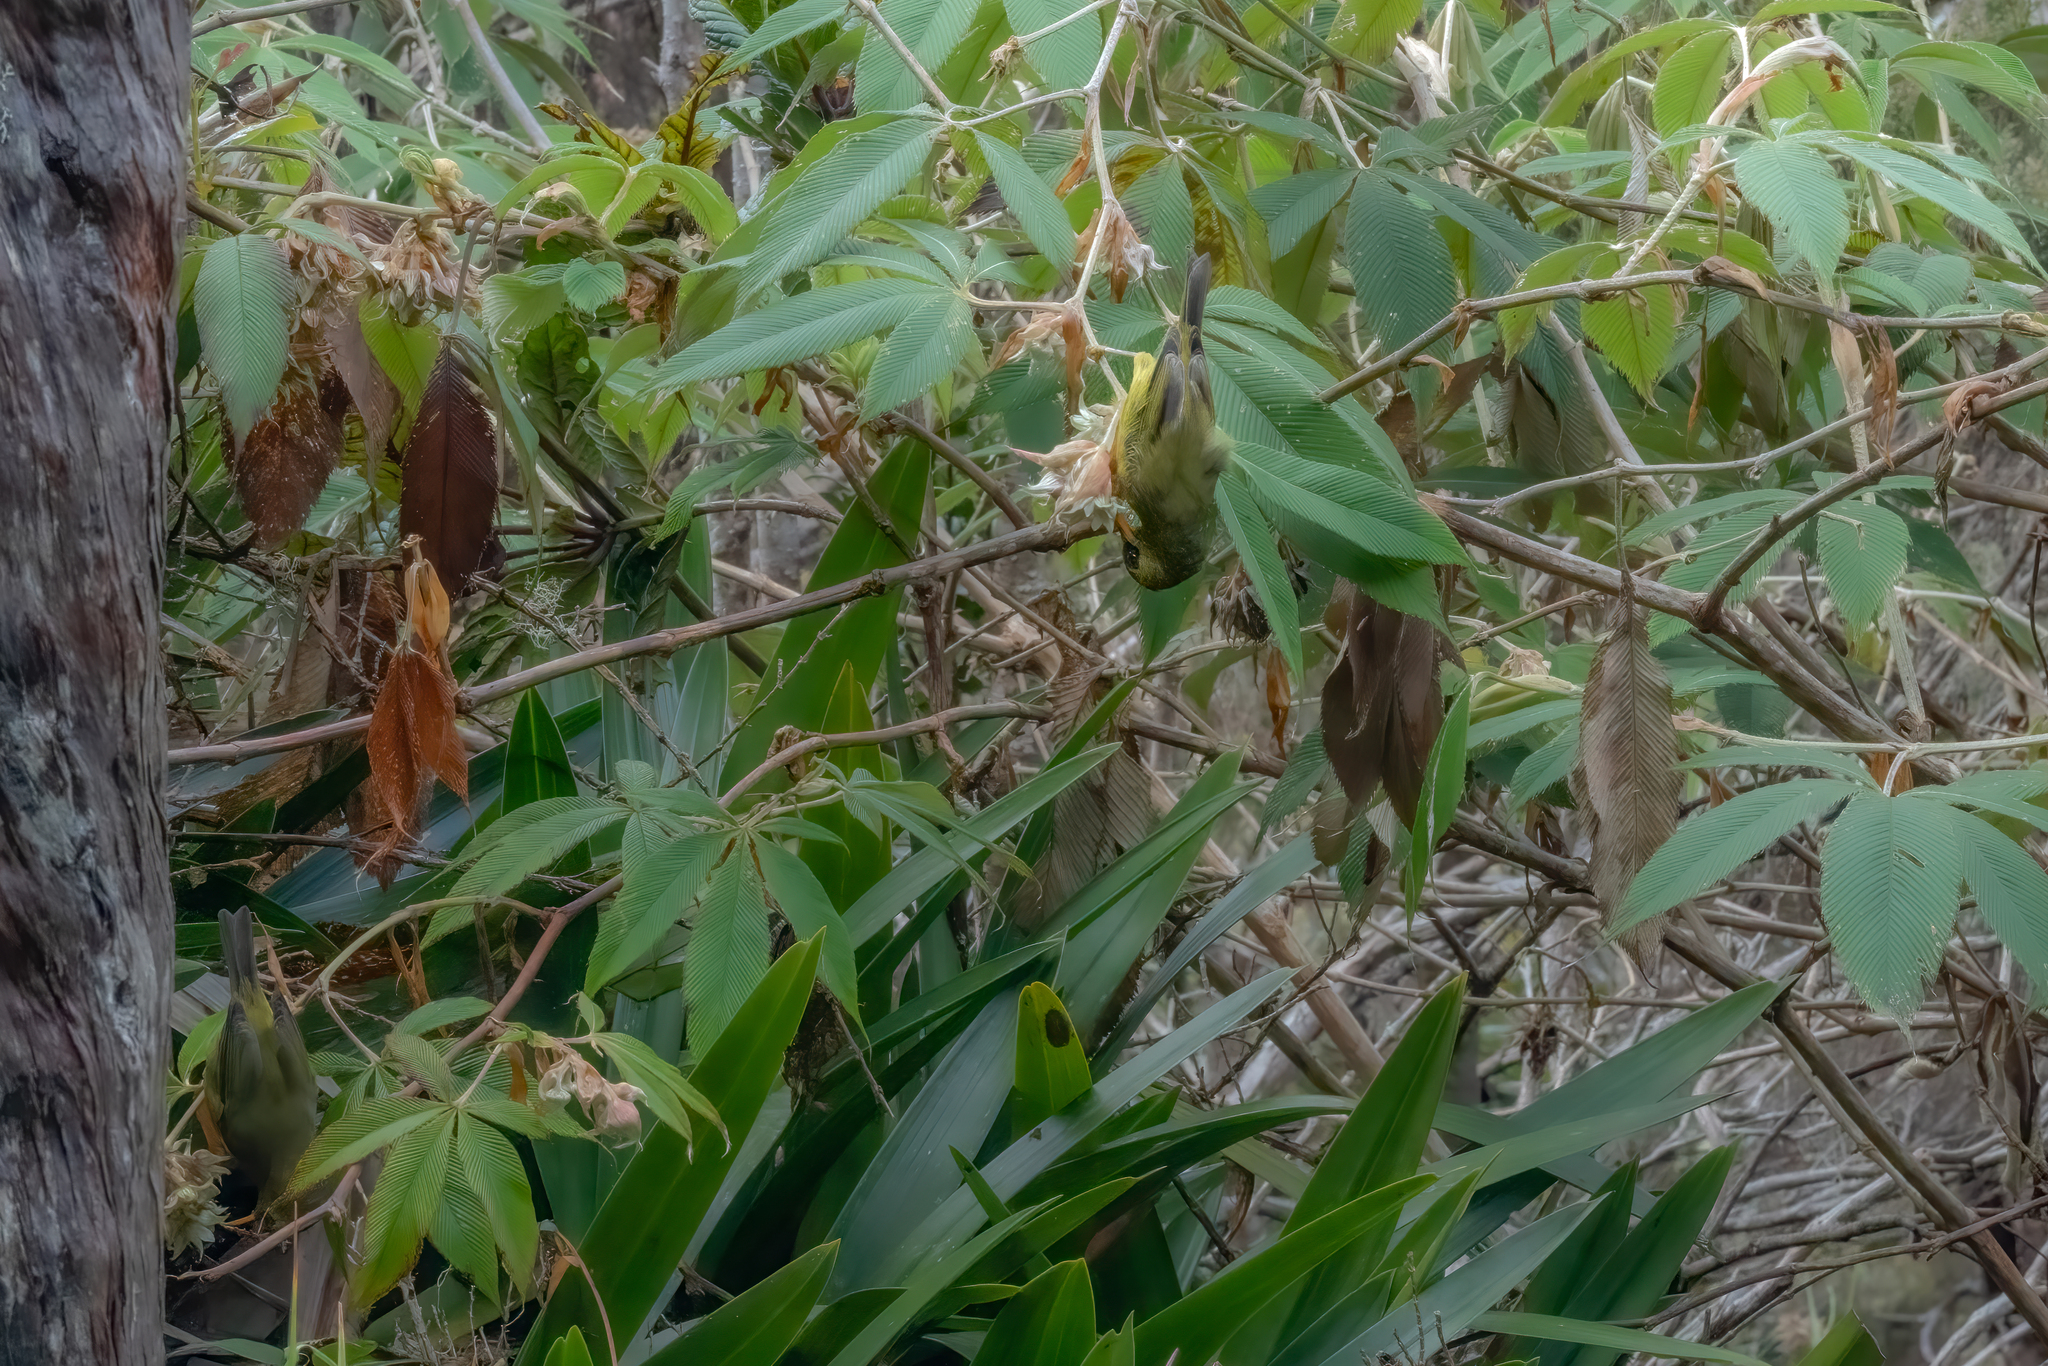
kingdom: Animalia
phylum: Chordata
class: Aves
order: Passeriformes
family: Zosteropidae
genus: Chlorocharis
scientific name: Chlorocharis emiliae
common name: Mountain blackeye
